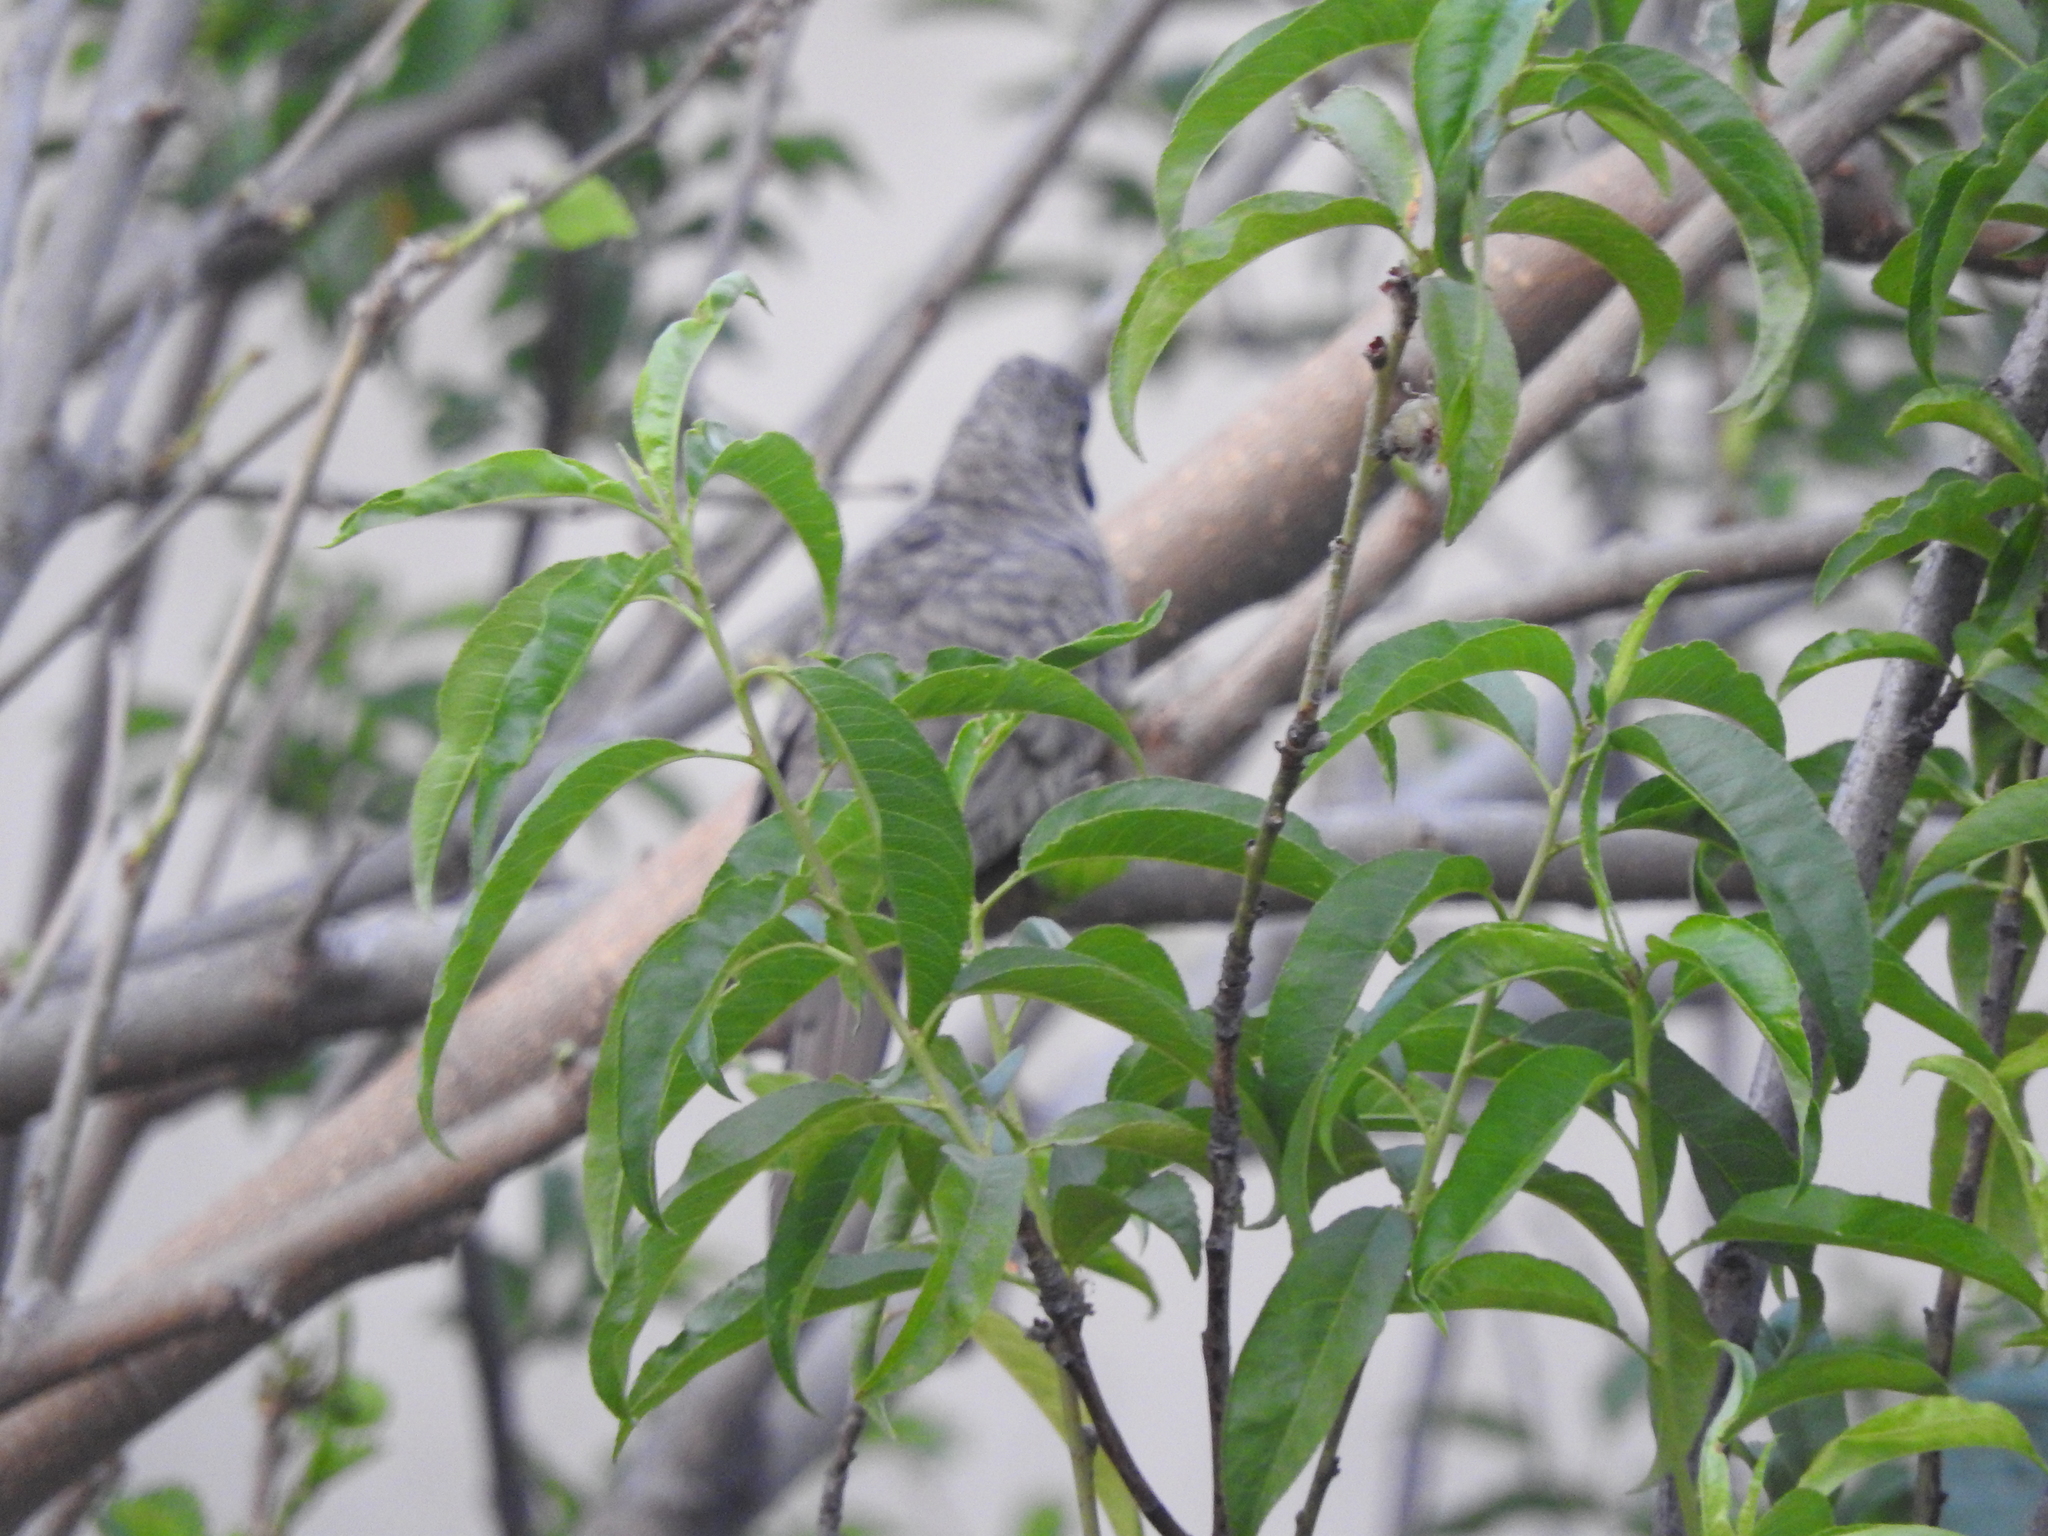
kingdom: Animalia
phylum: Chordata
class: Aves
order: Columbiformes
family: Columbidae
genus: Columbina
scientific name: Columbina inca
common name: Inca dove
